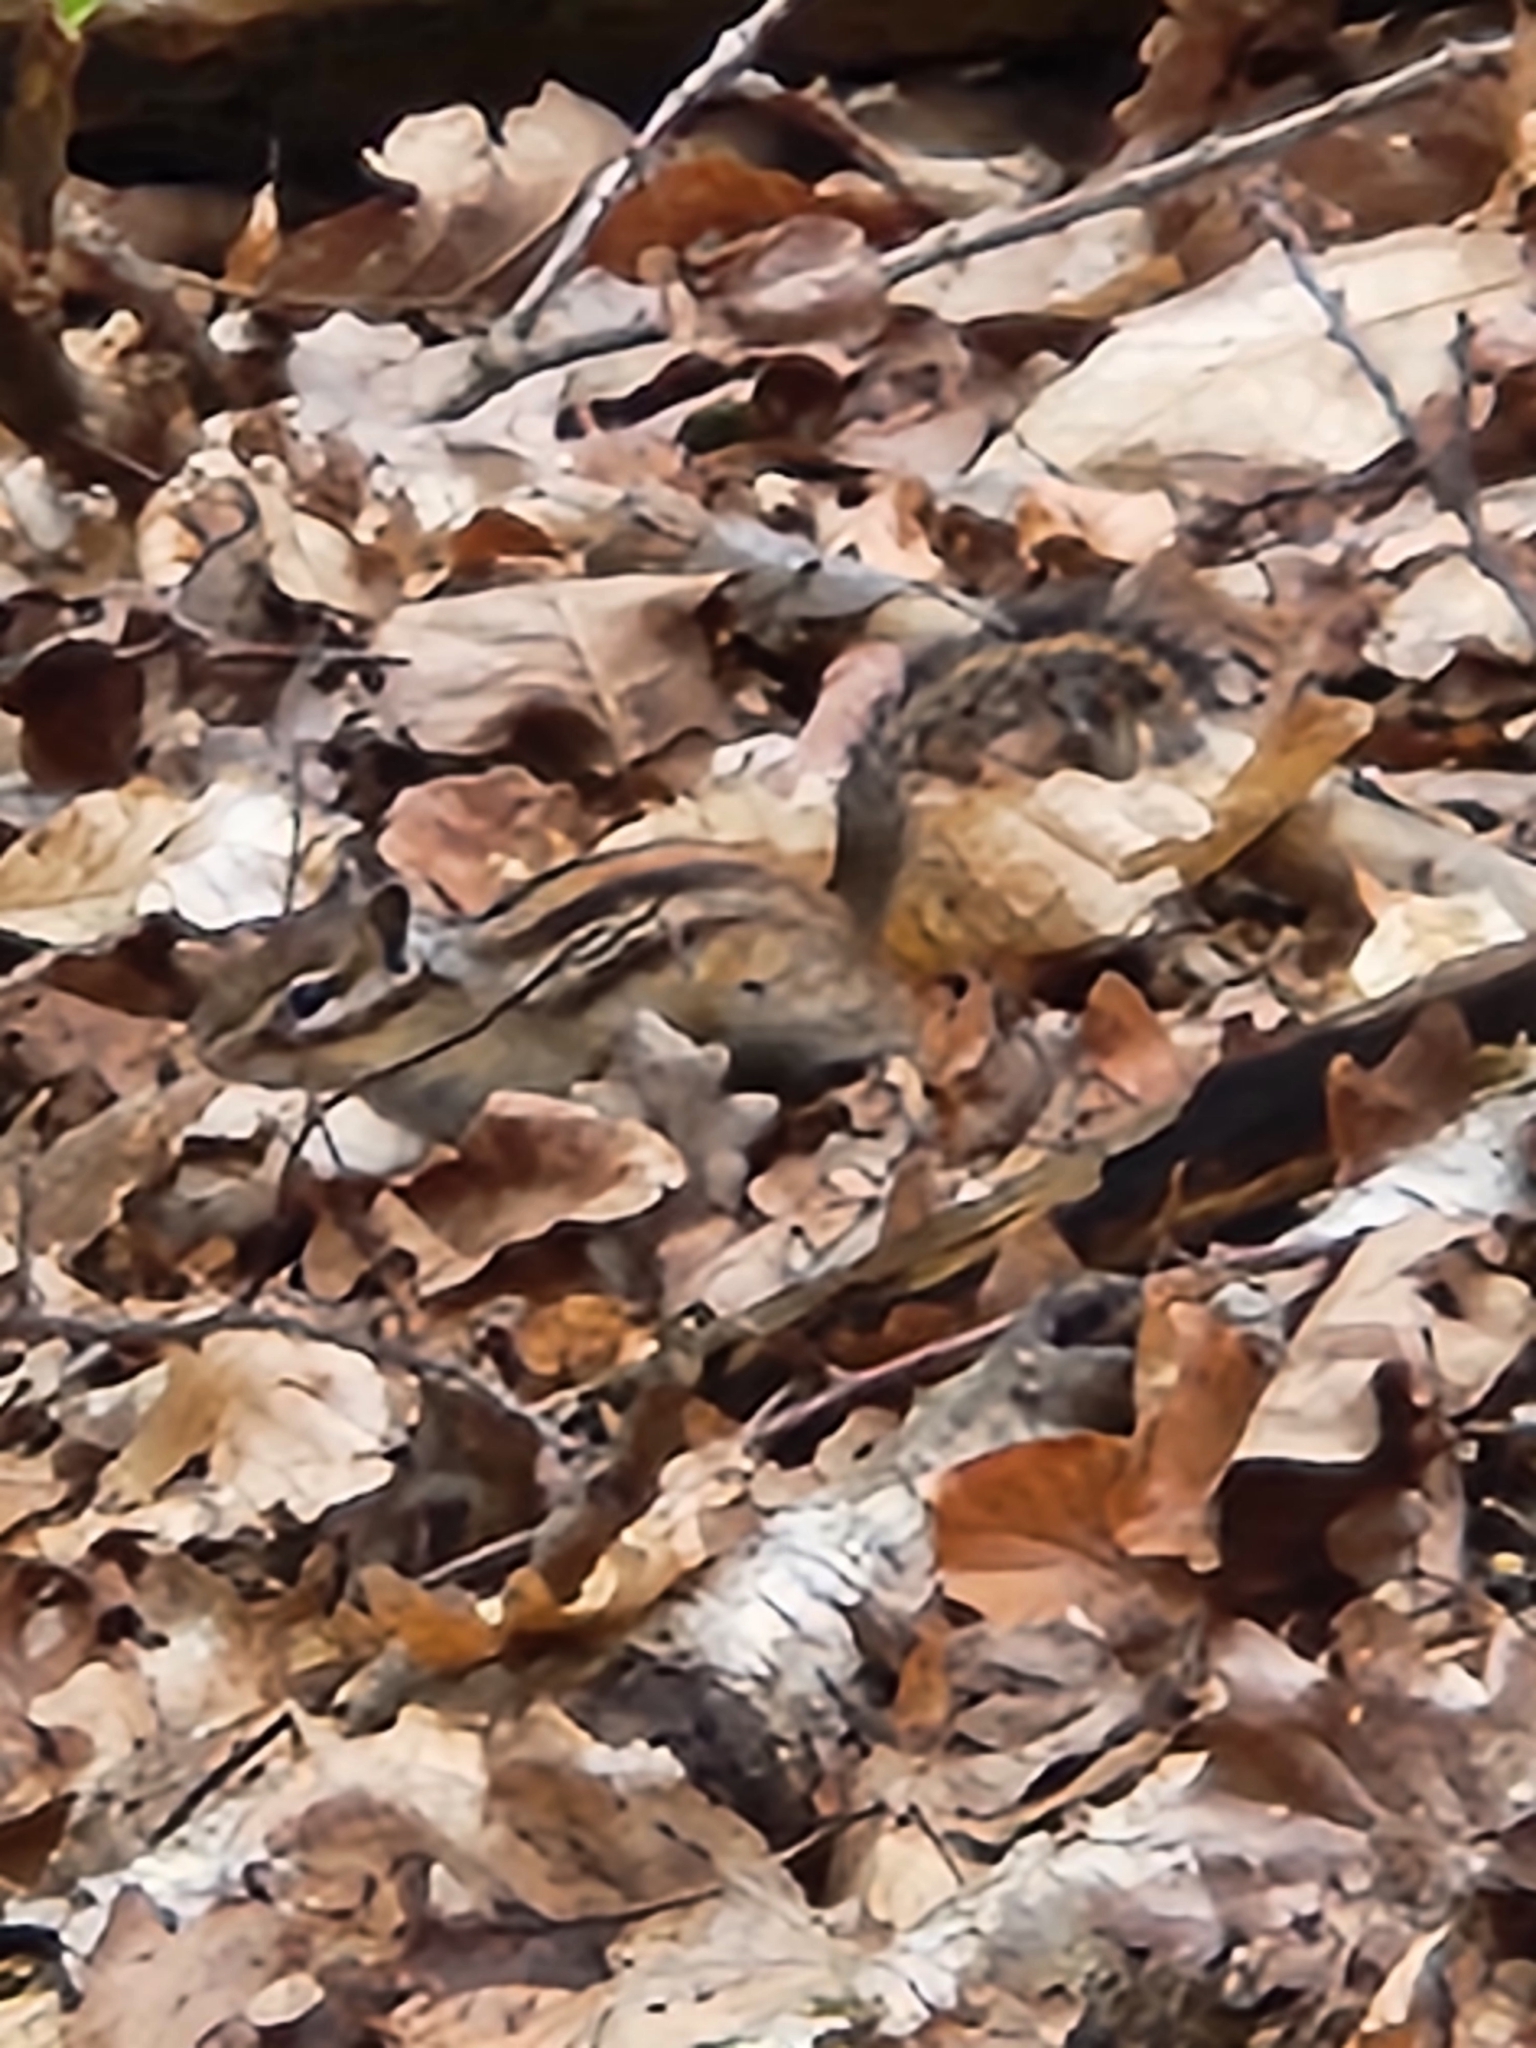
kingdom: Animalia
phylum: Chordata
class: Mammalia
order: Rodentia
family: Sciuridae
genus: Tamias
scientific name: Tamias sibiricus
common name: Siberian chipmunk
